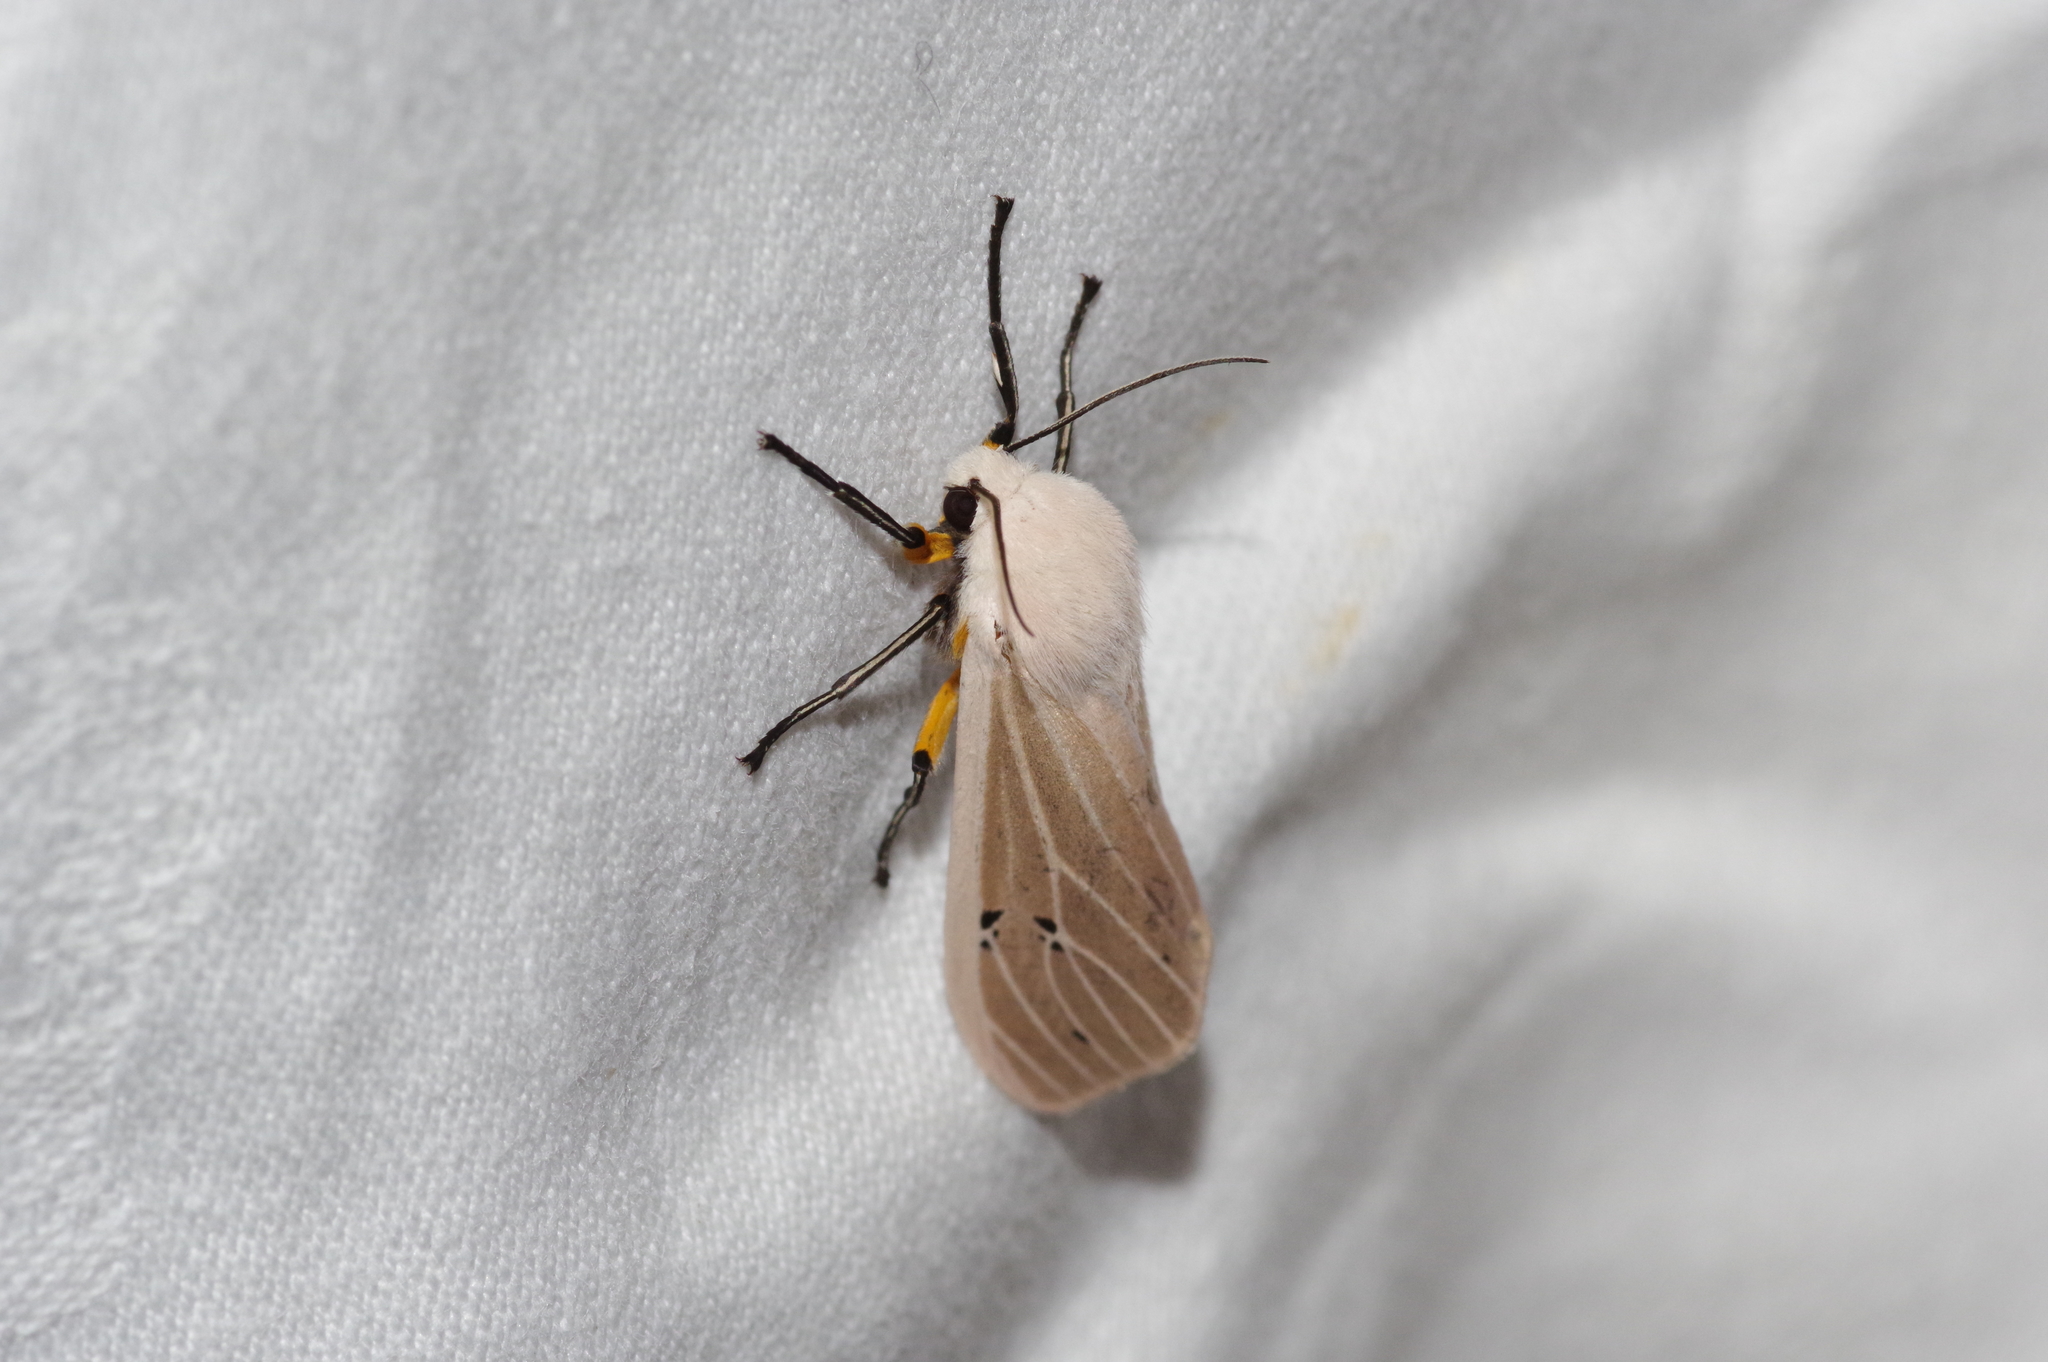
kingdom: Animalia
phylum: Arthropoda
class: Insecta
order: Lepidoptera
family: Erebidae
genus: Creatonotos
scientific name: Creatonotos transiens
